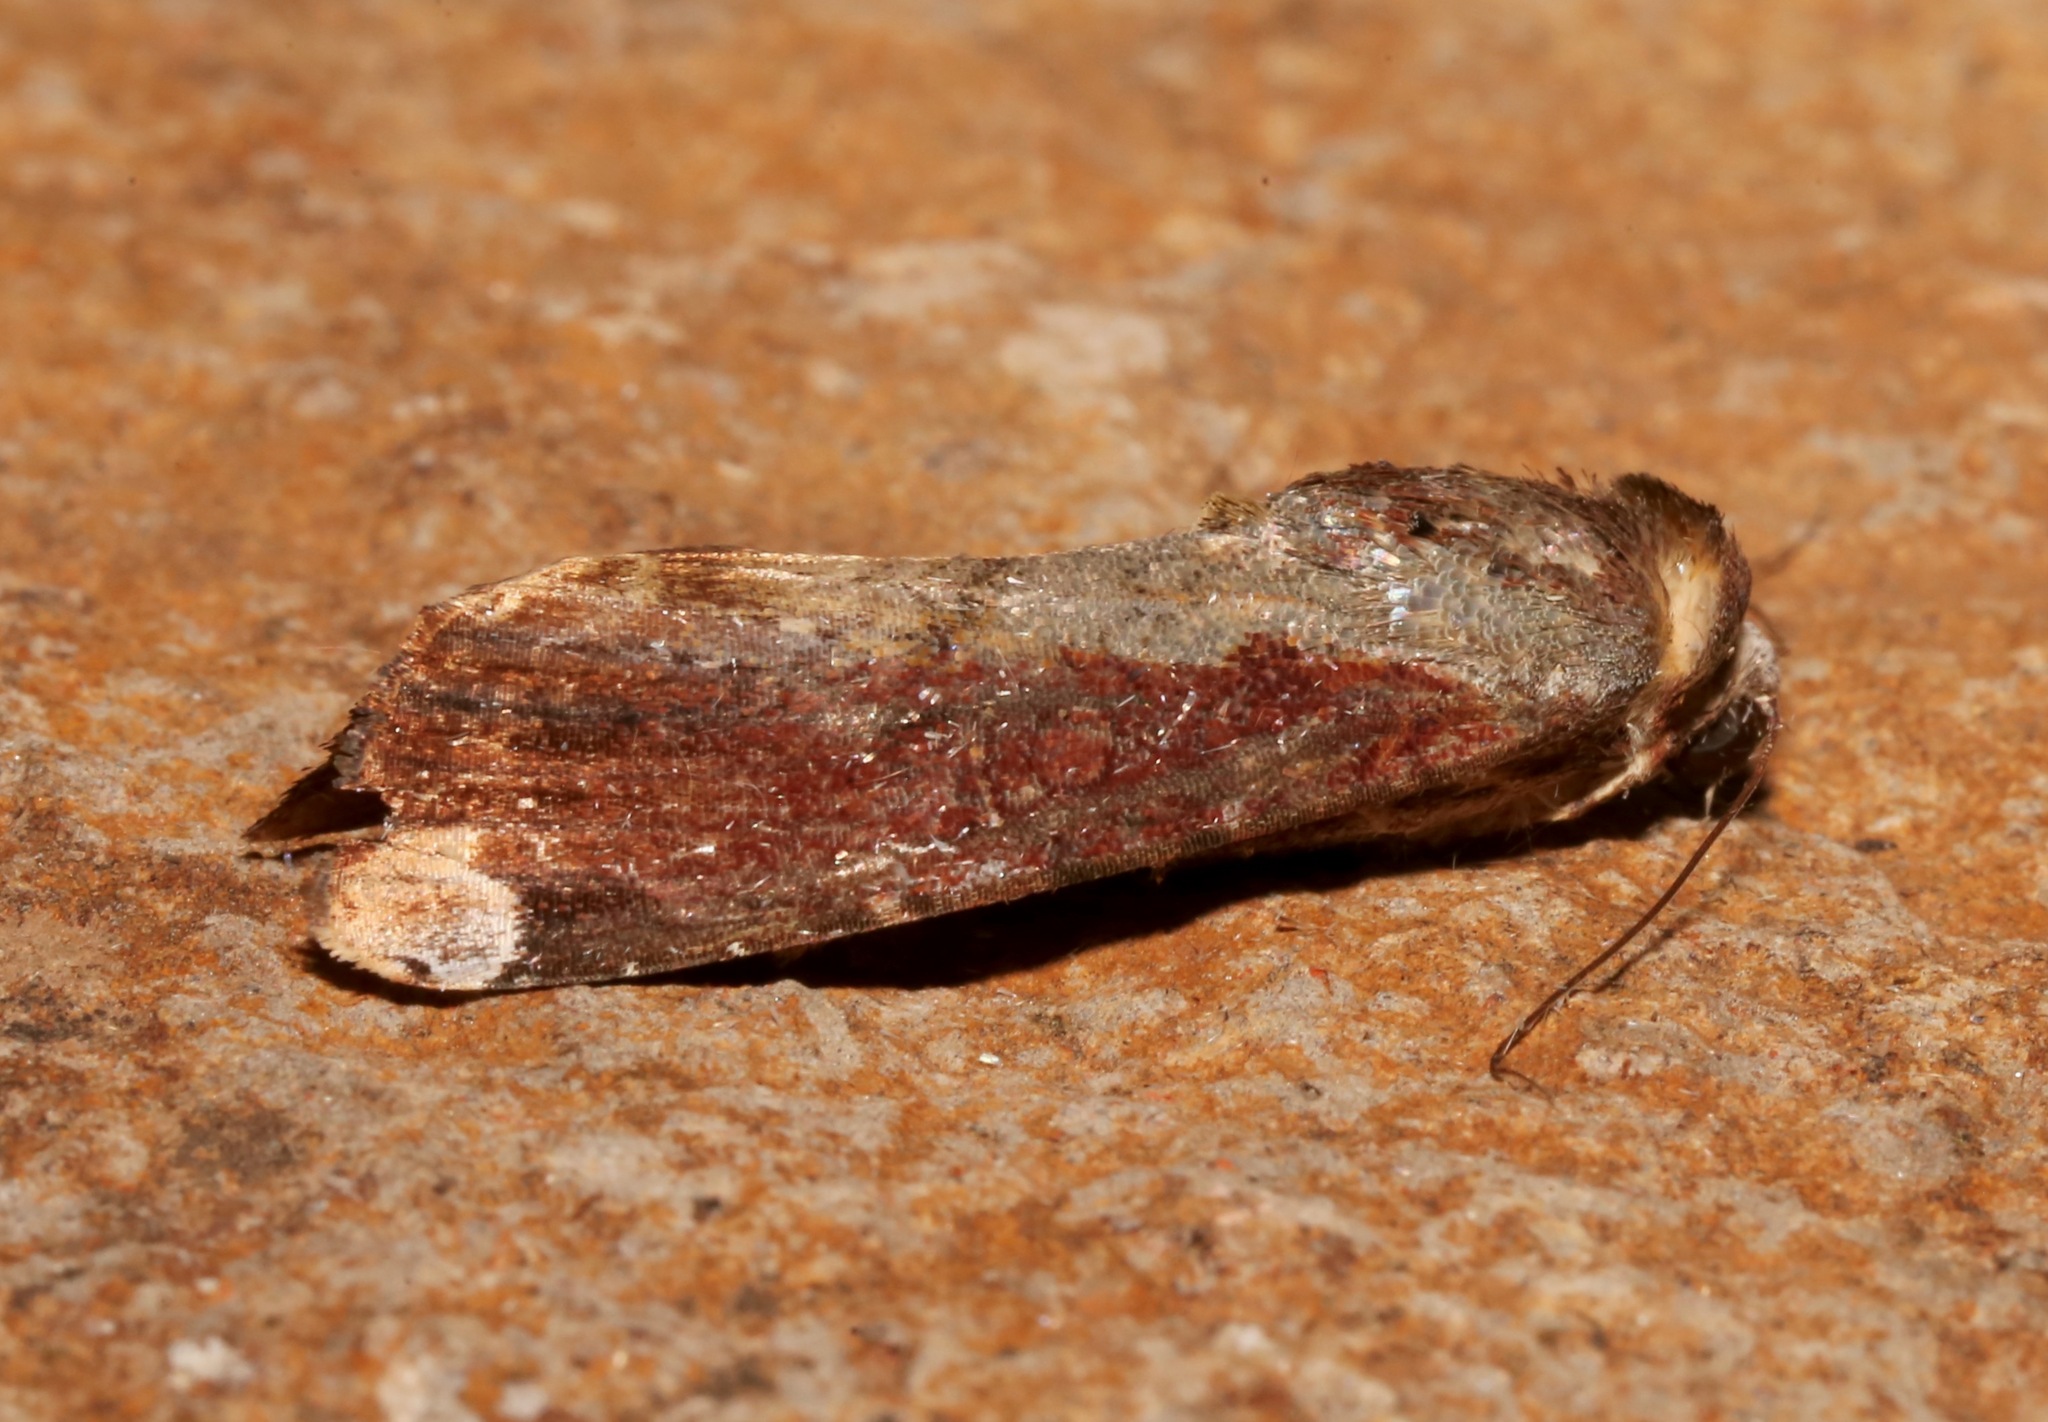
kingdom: Animalia
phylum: Arthropoda
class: Insecta
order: Lepidoptera
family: Noctuidae
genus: Magusa
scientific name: Magusa divaricata
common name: Orb narrow-winged moth
